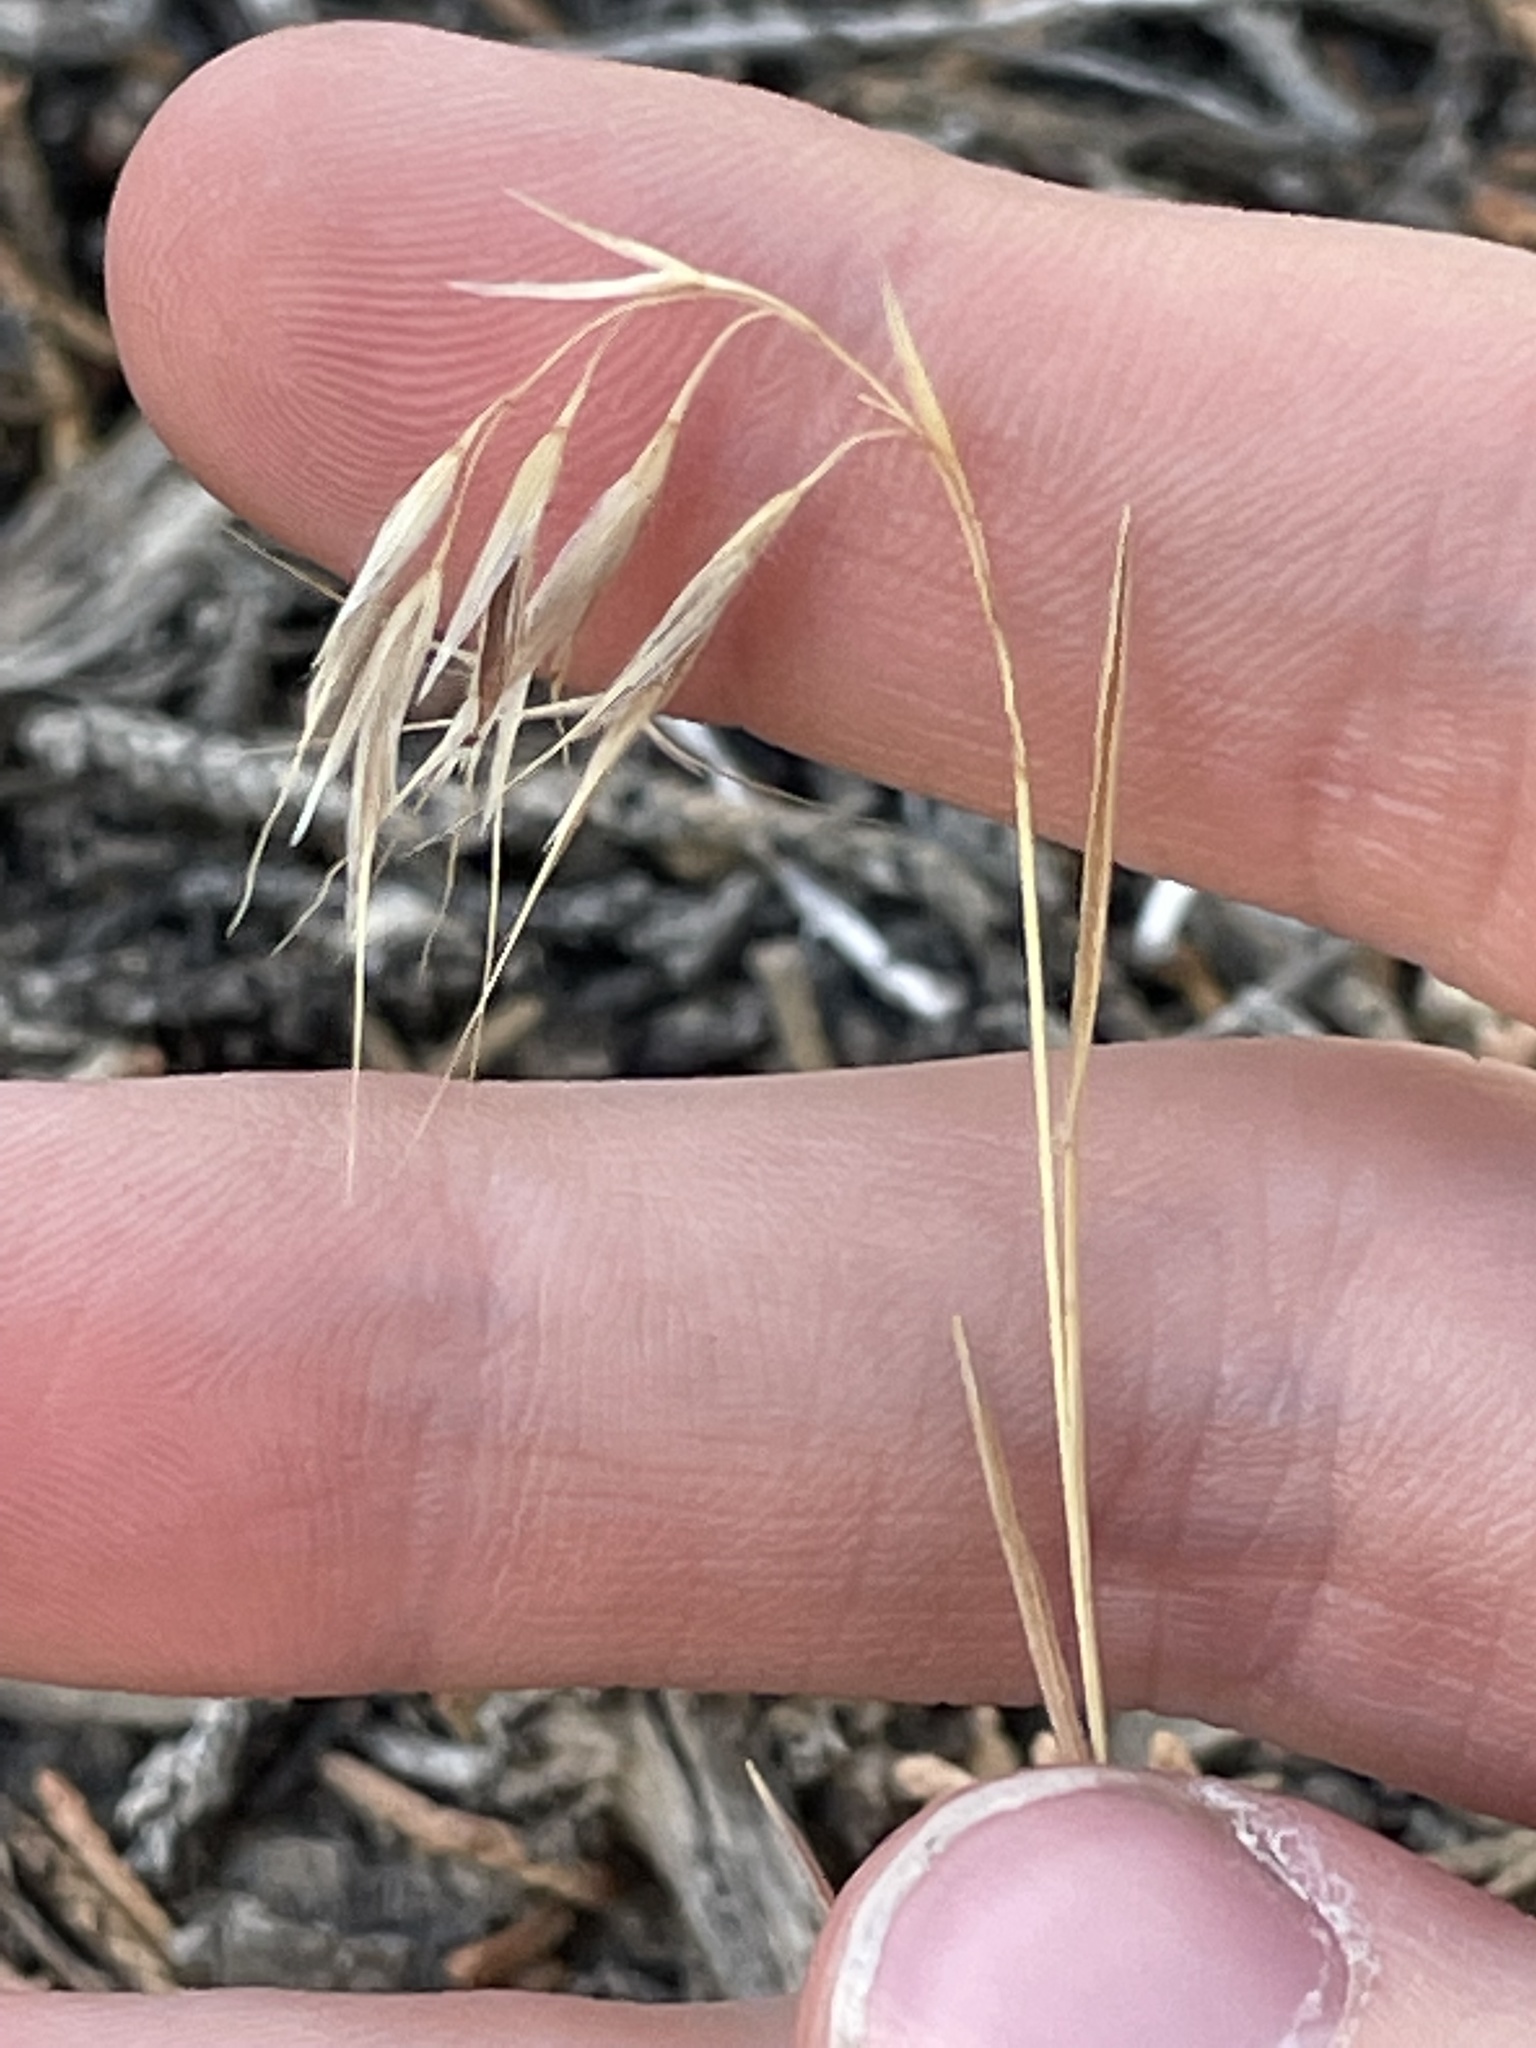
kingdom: Plantae
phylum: Tracheophyta
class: Liliopsida
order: Poales
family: Poaceae
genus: Bromus
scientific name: Bromus tectorum
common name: Cheatgrass
